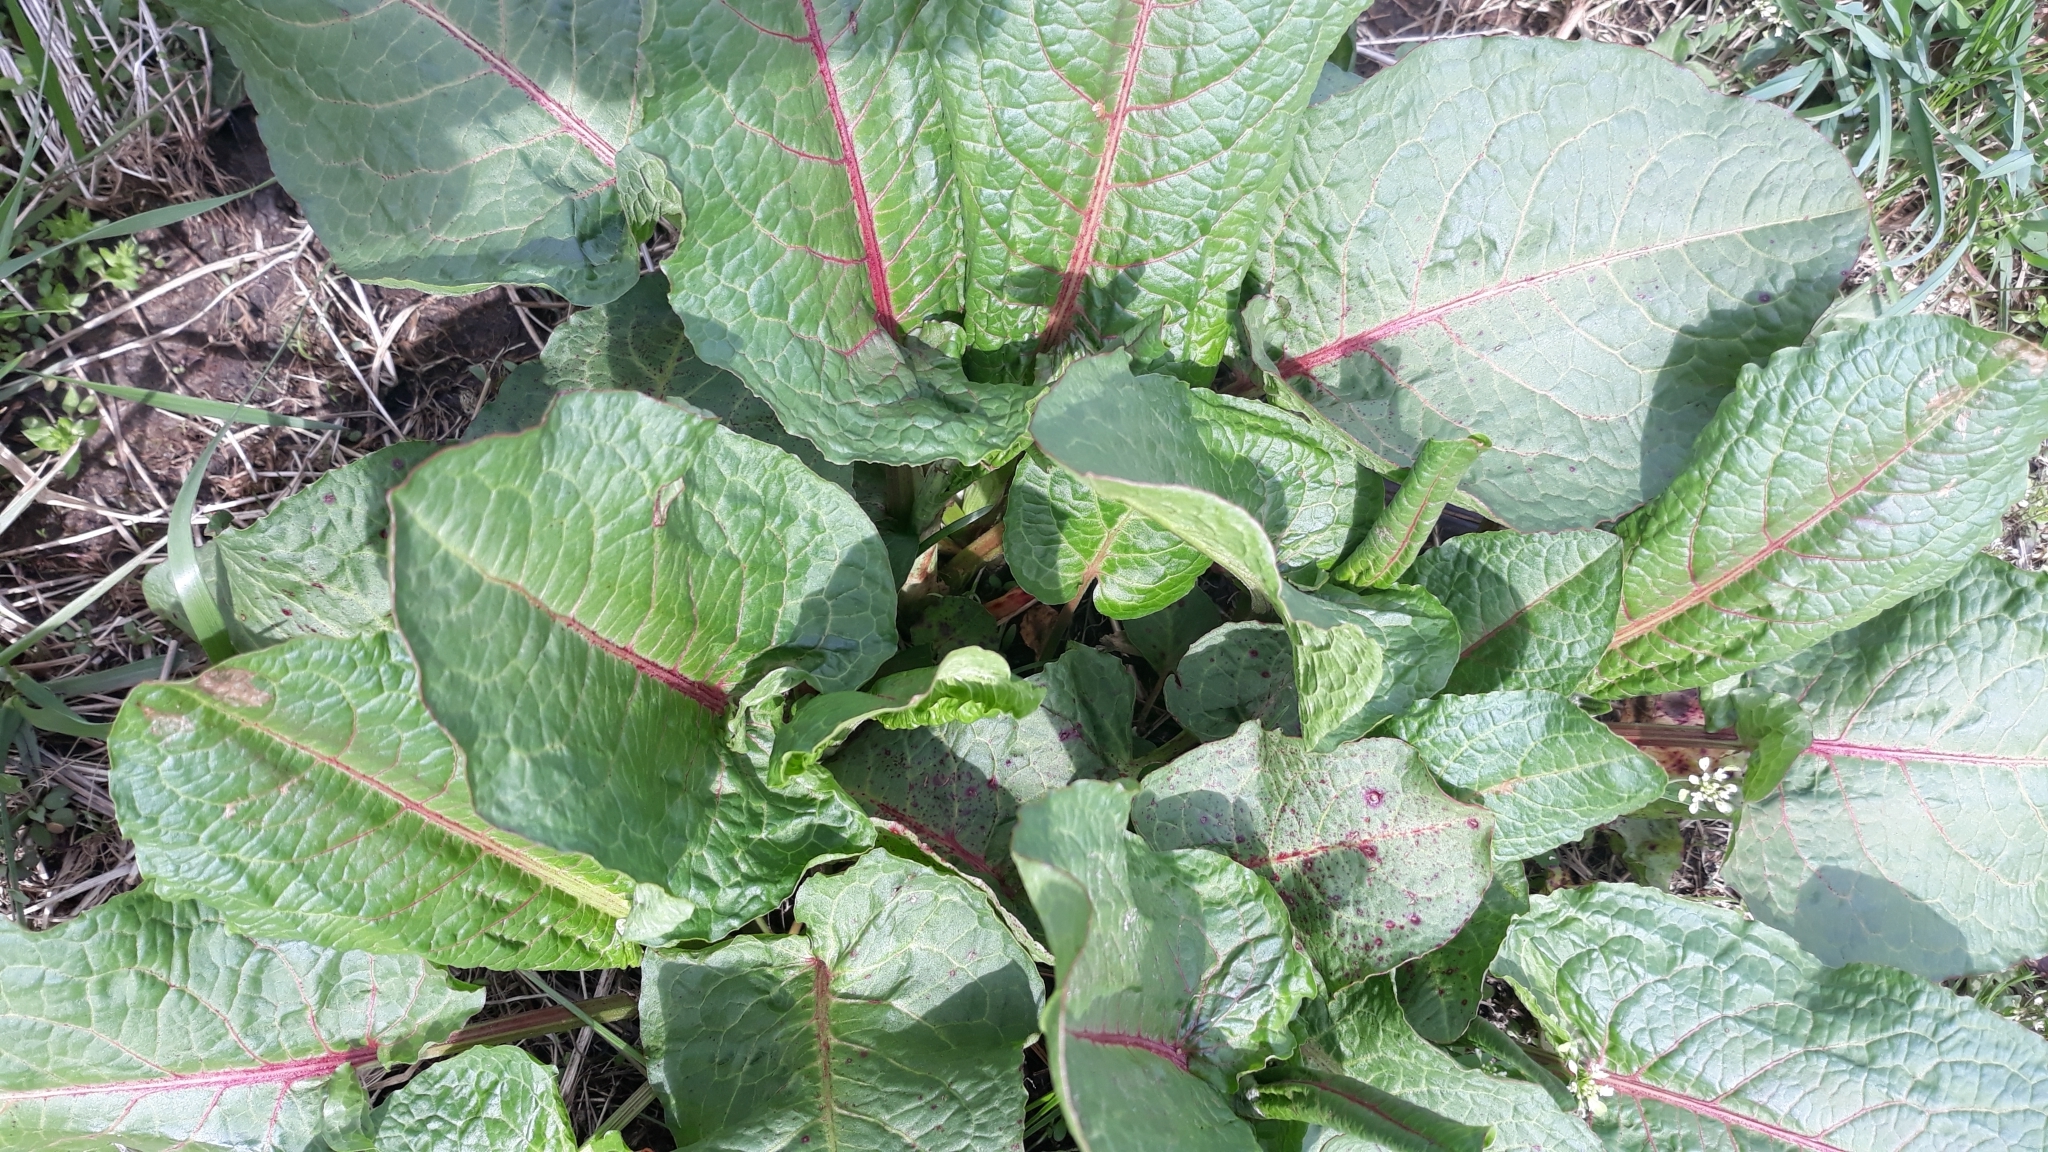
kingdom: Plantae
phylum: Tracheophyta
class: Magnoliopsida
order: Caryophyllales
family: Polygonaceae
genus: Rumex
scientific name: Rumex obtusifolius
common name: Bitter dock
